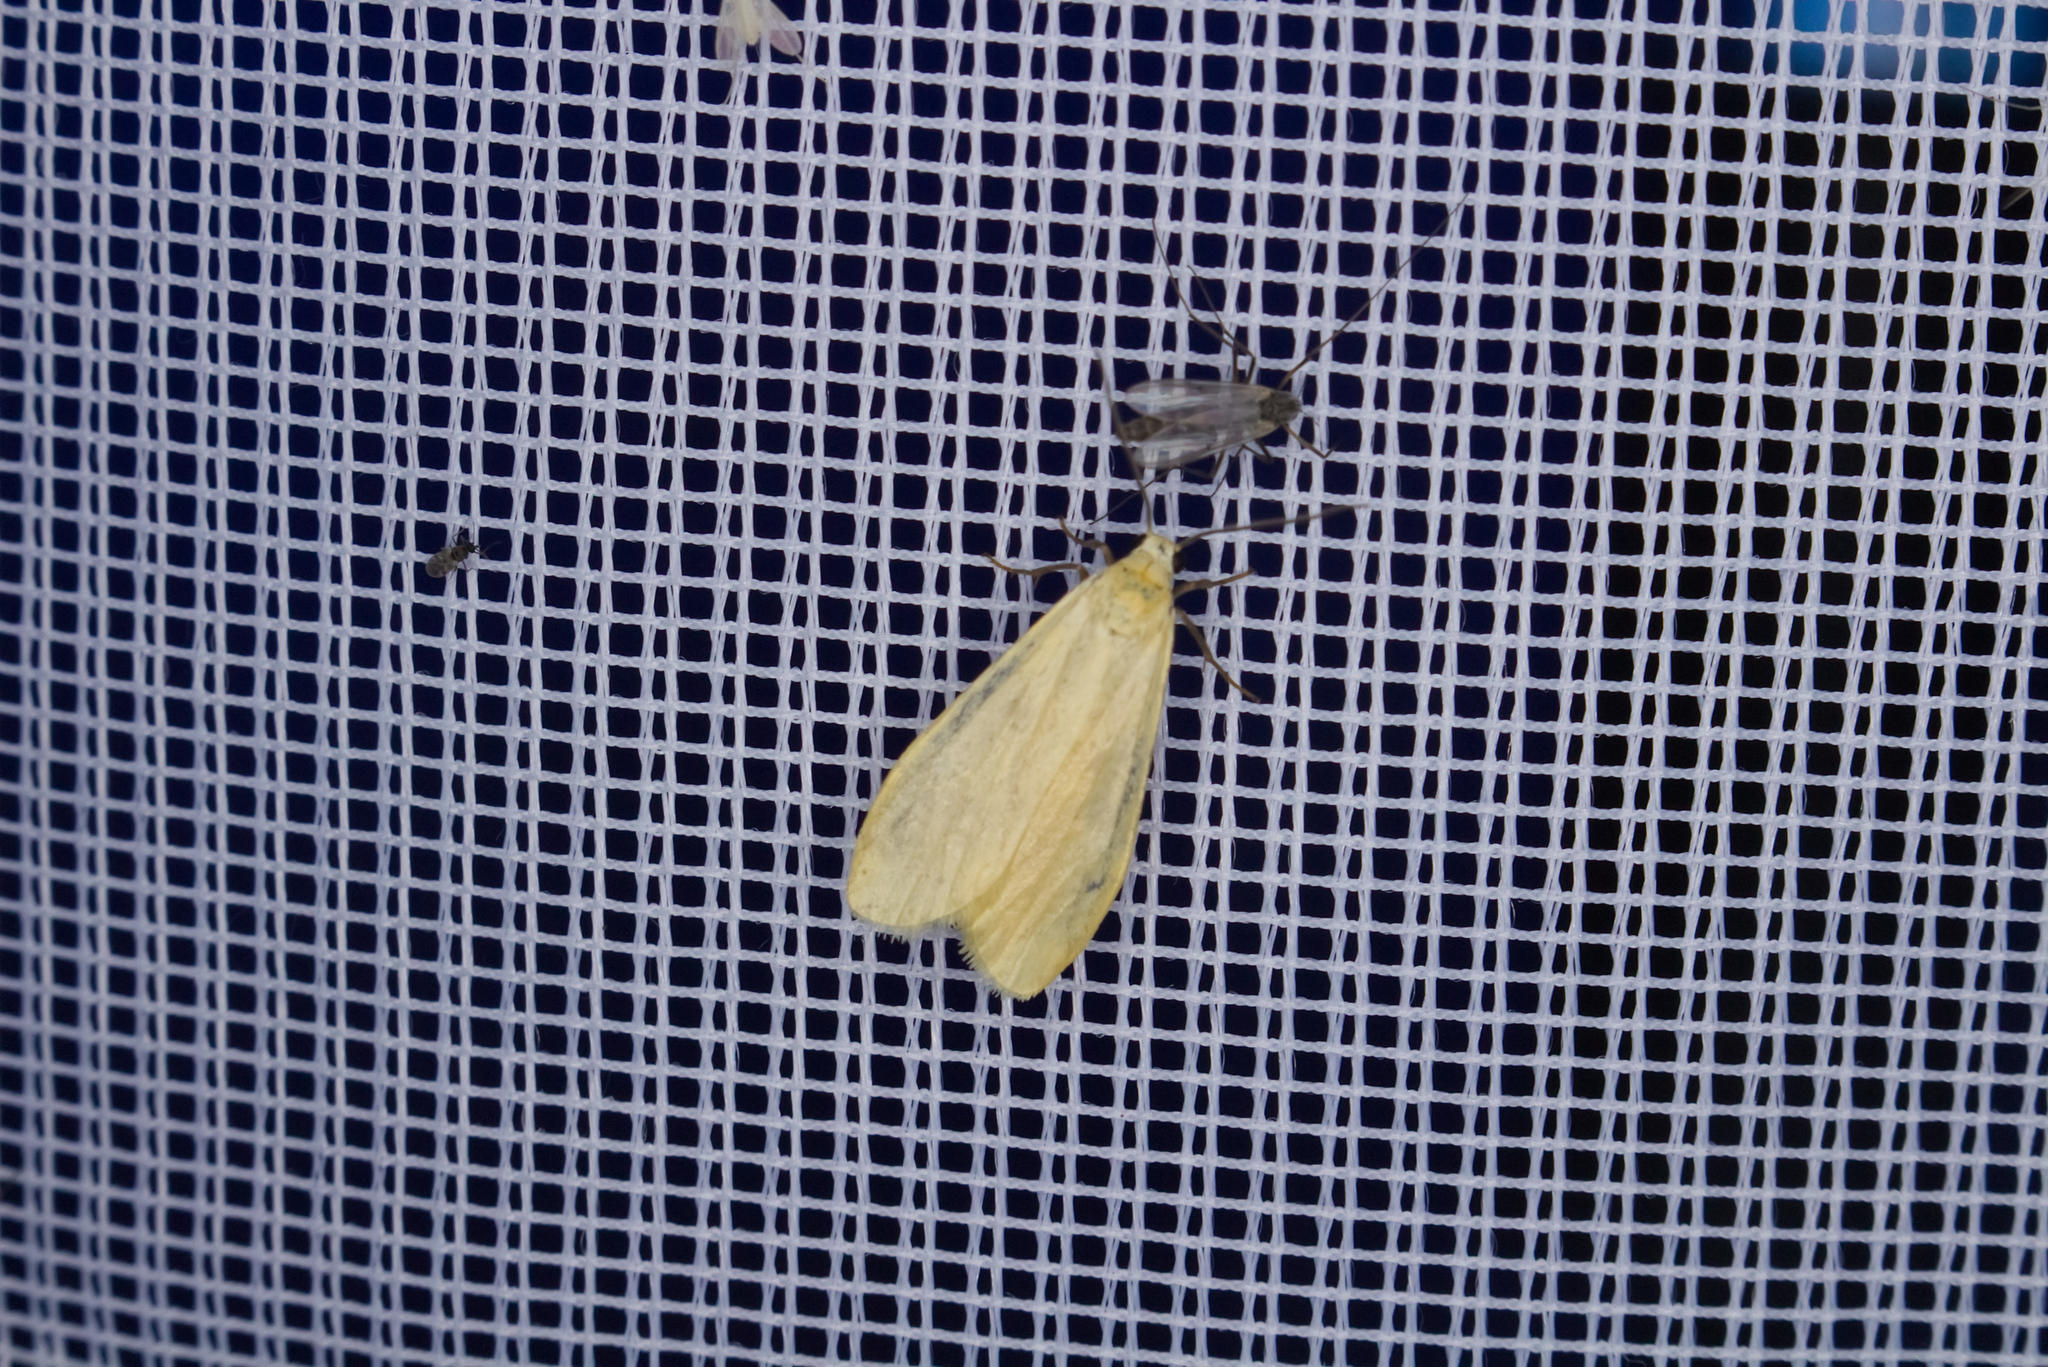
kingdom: Animalia
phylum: Arthropoda
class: Insecta
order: Lepidoptera
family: Erebidae
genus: Wittia
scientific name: Wittia sororcula
